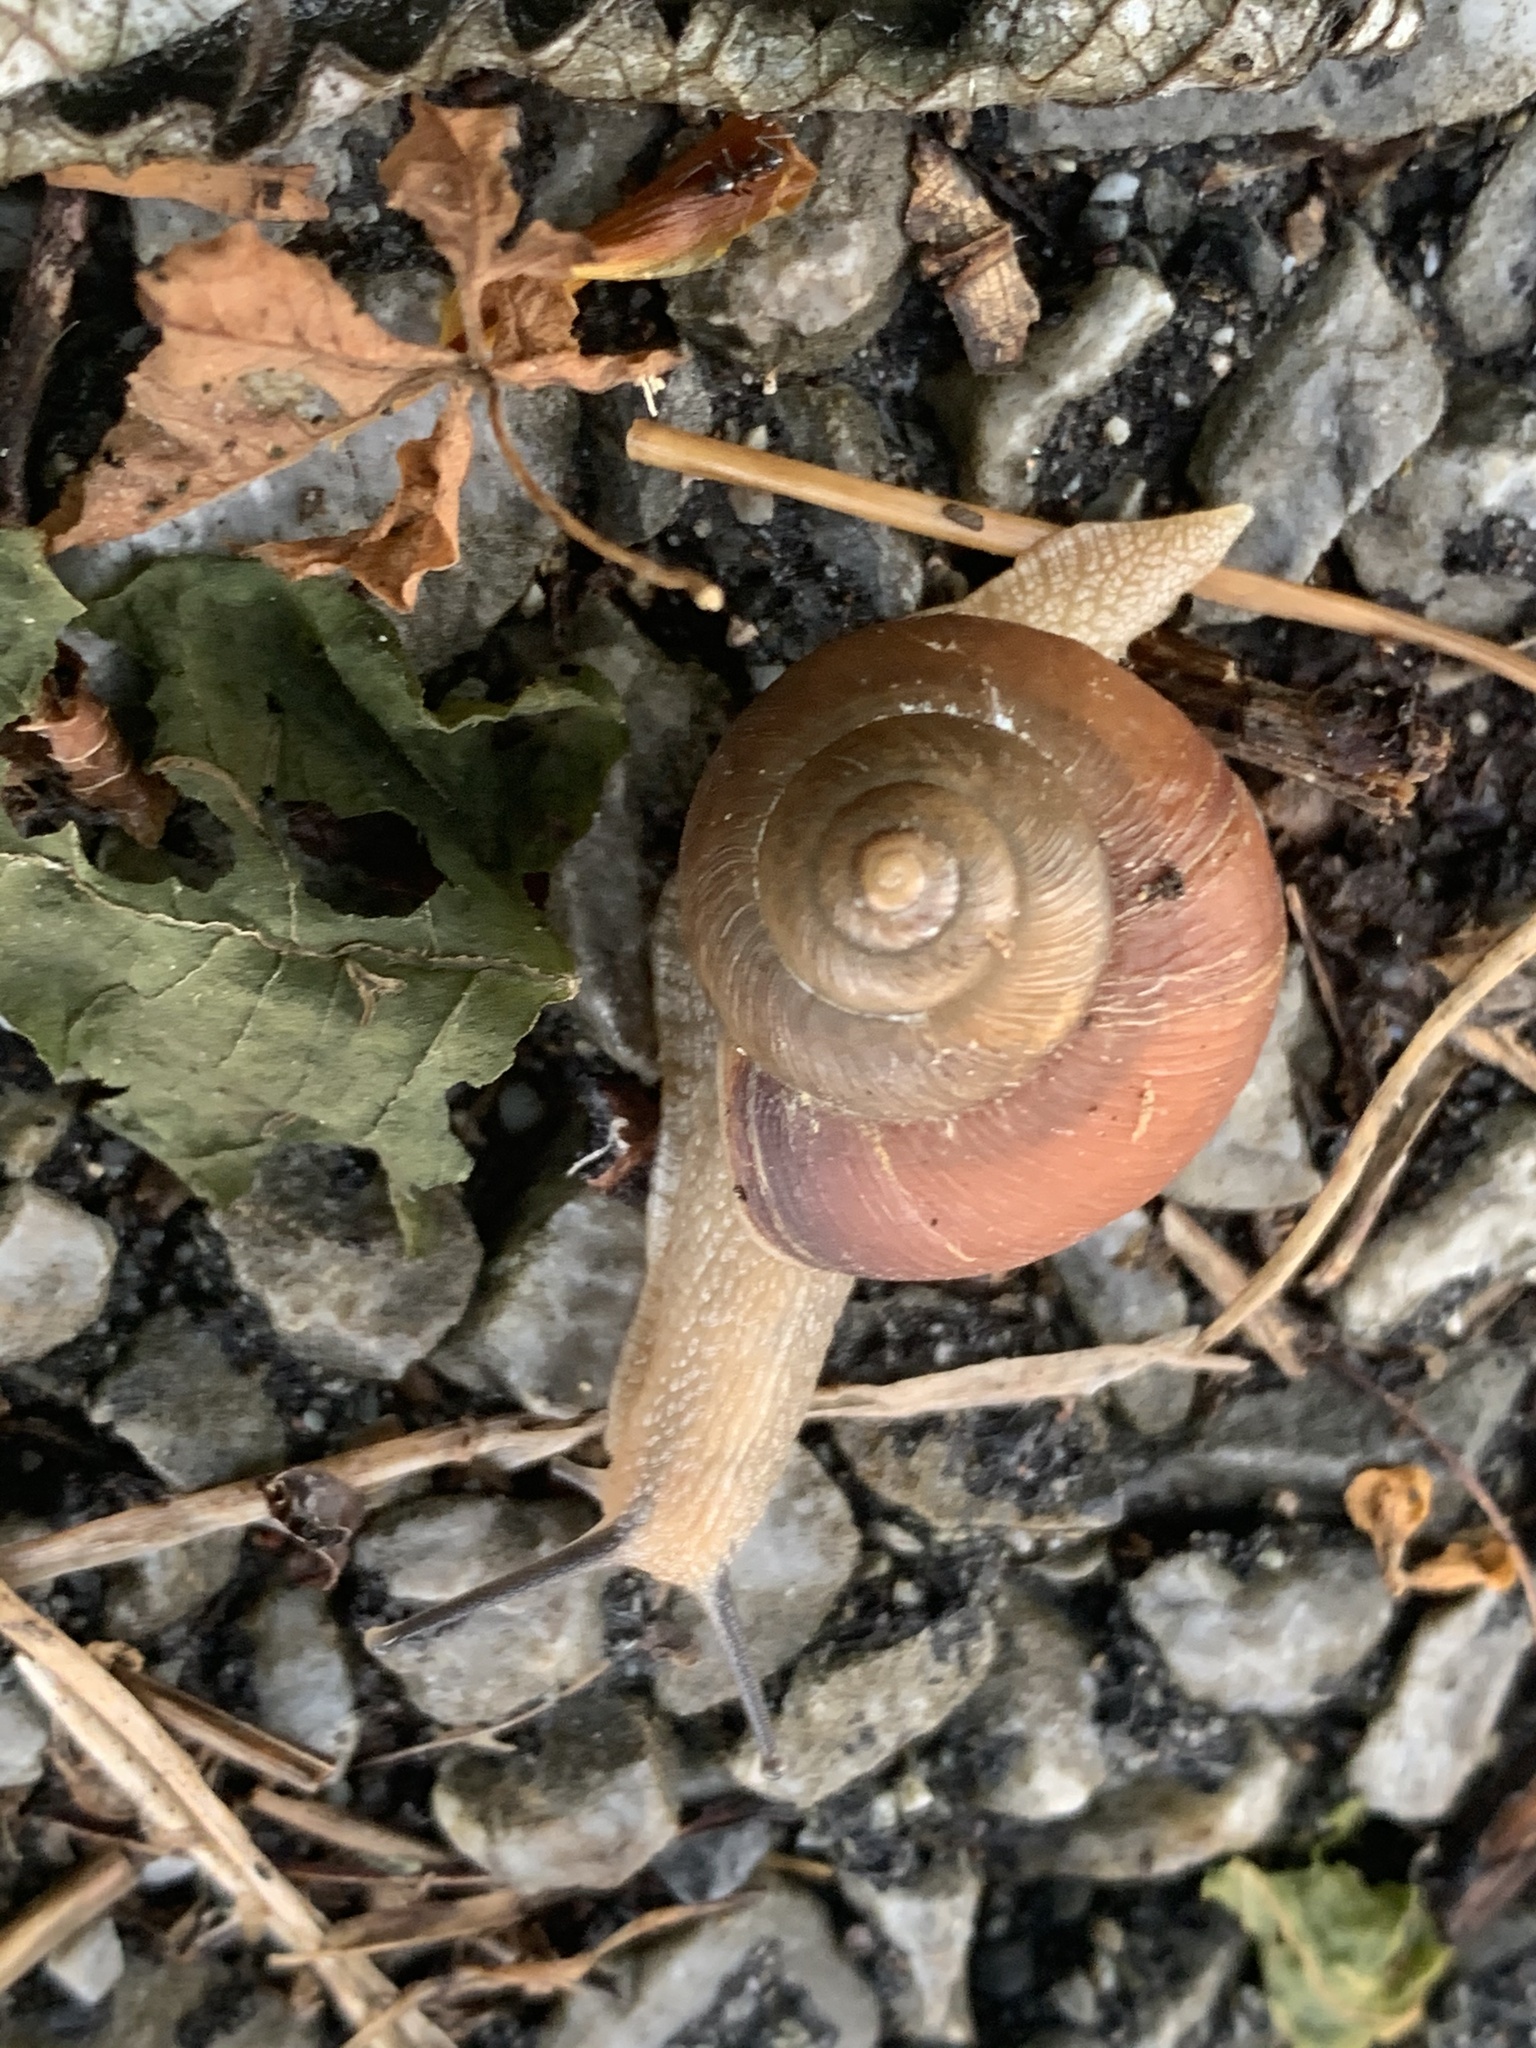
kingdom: Animalia
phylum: Mollusca
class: Gastropoda
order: Stylommatophora
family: Camaenidae
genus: Acusta
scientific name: Acusta despecta
